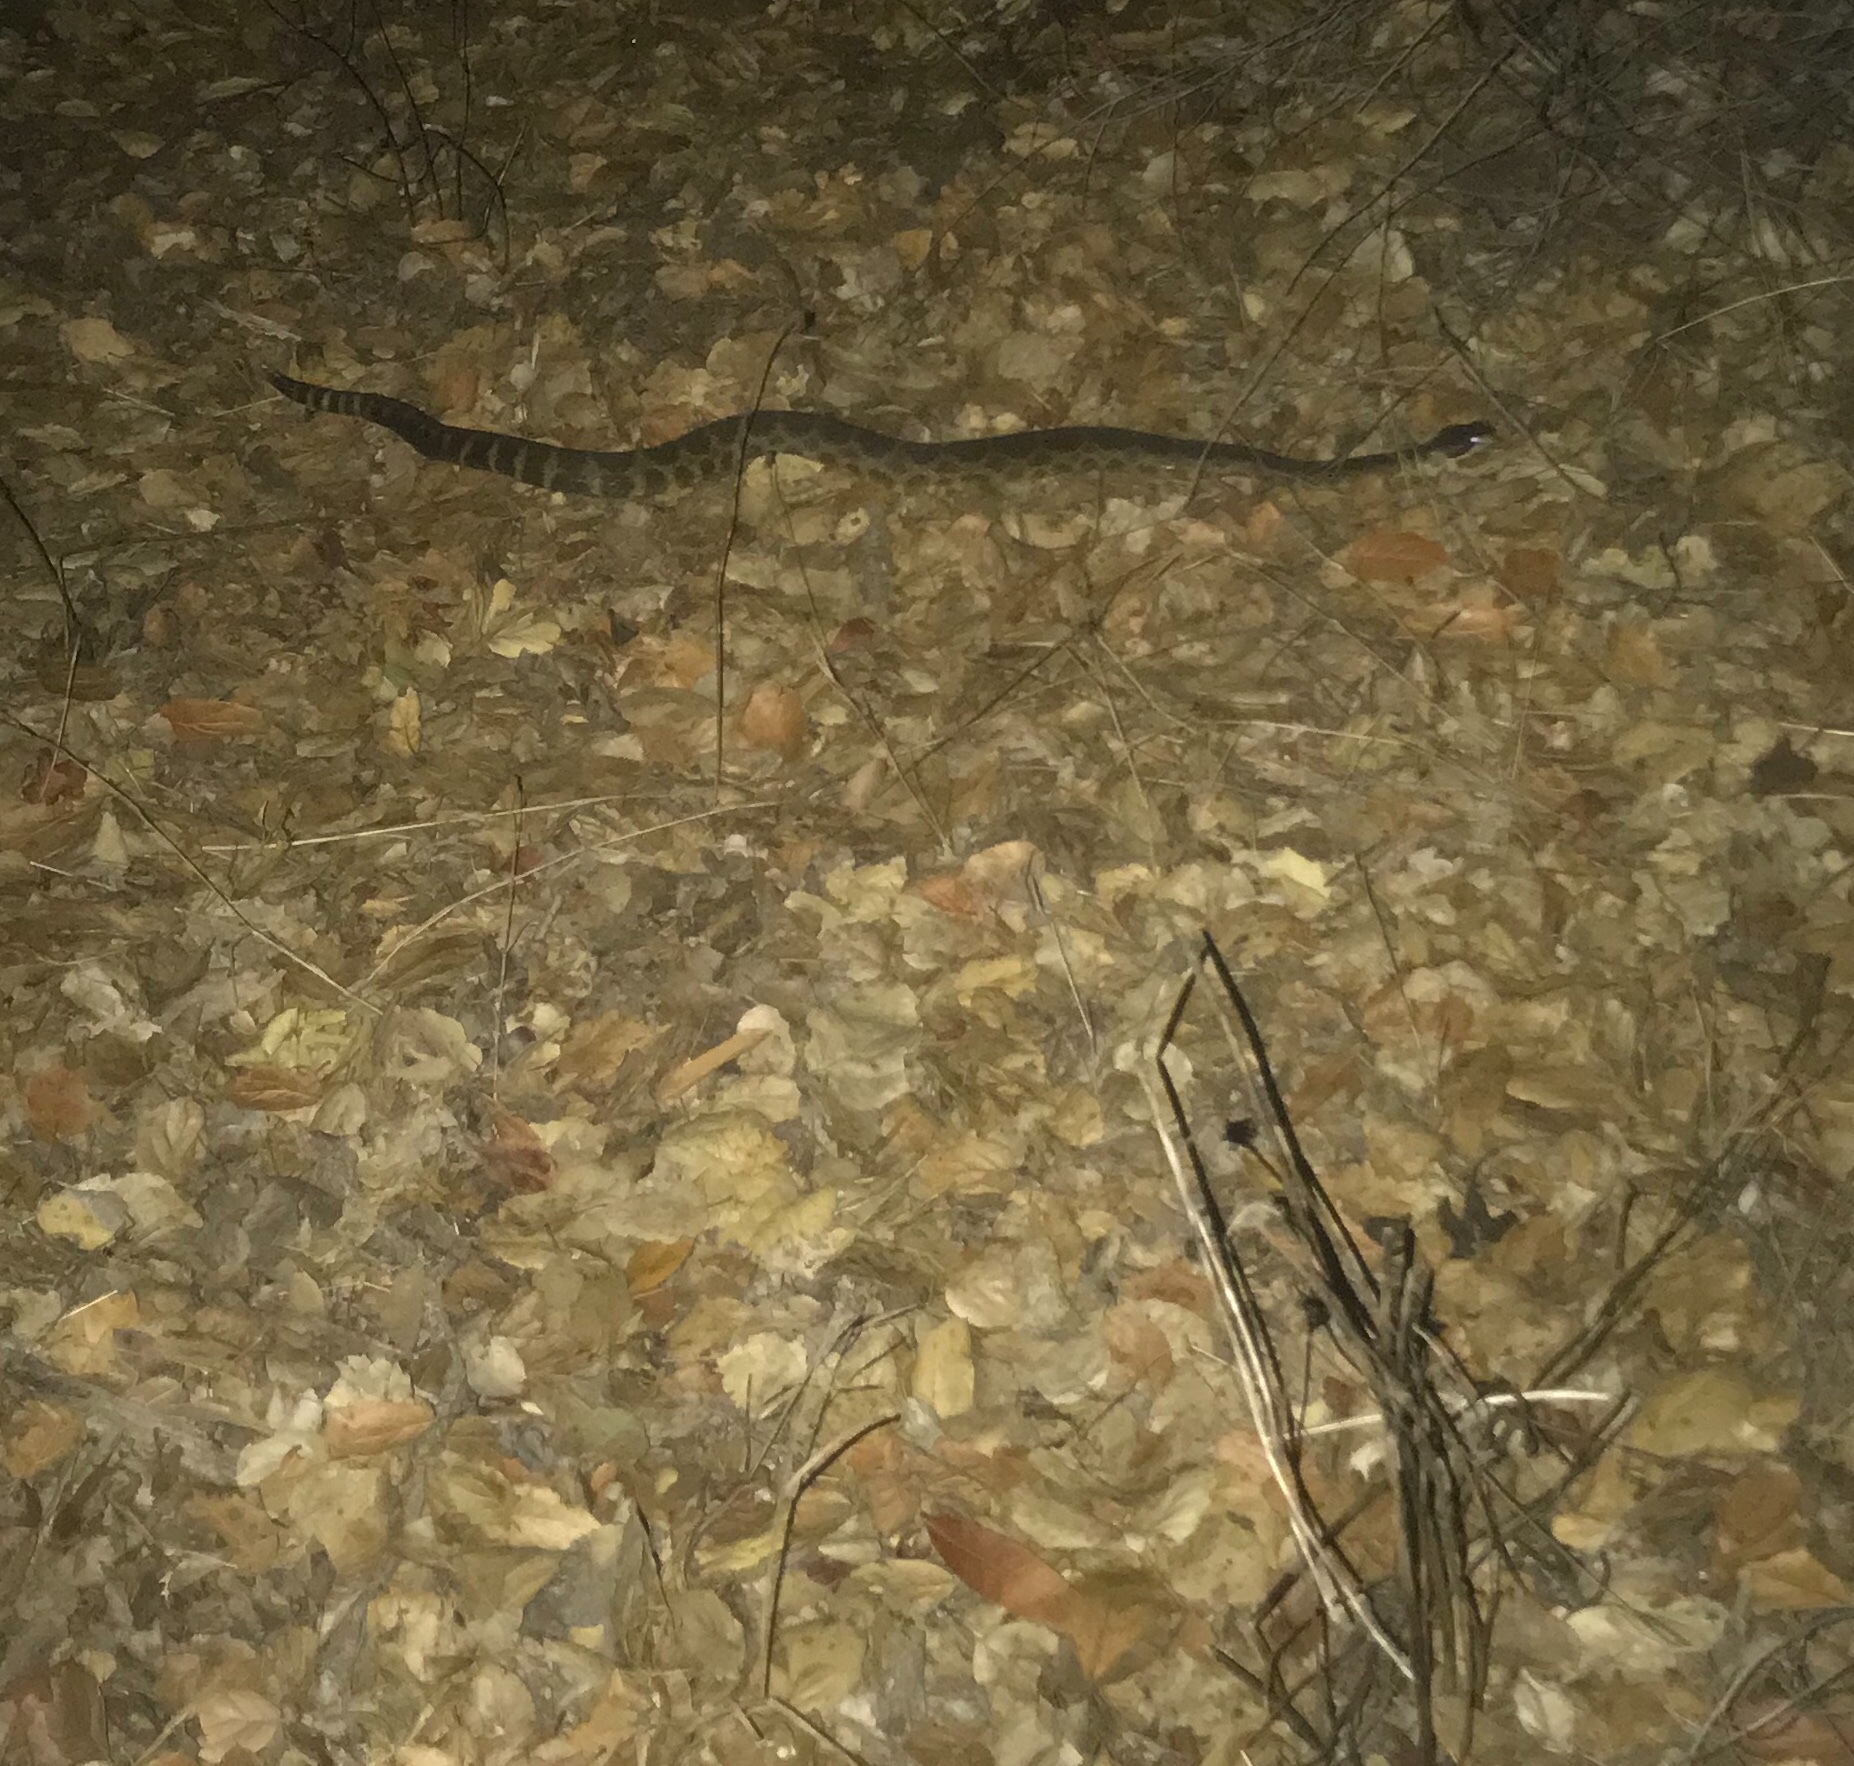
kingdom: Animalia
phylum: Chordata
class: Squamata
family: Viperidae
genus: Crotalus
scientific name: Crotalus oreganus
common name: Abyssus
